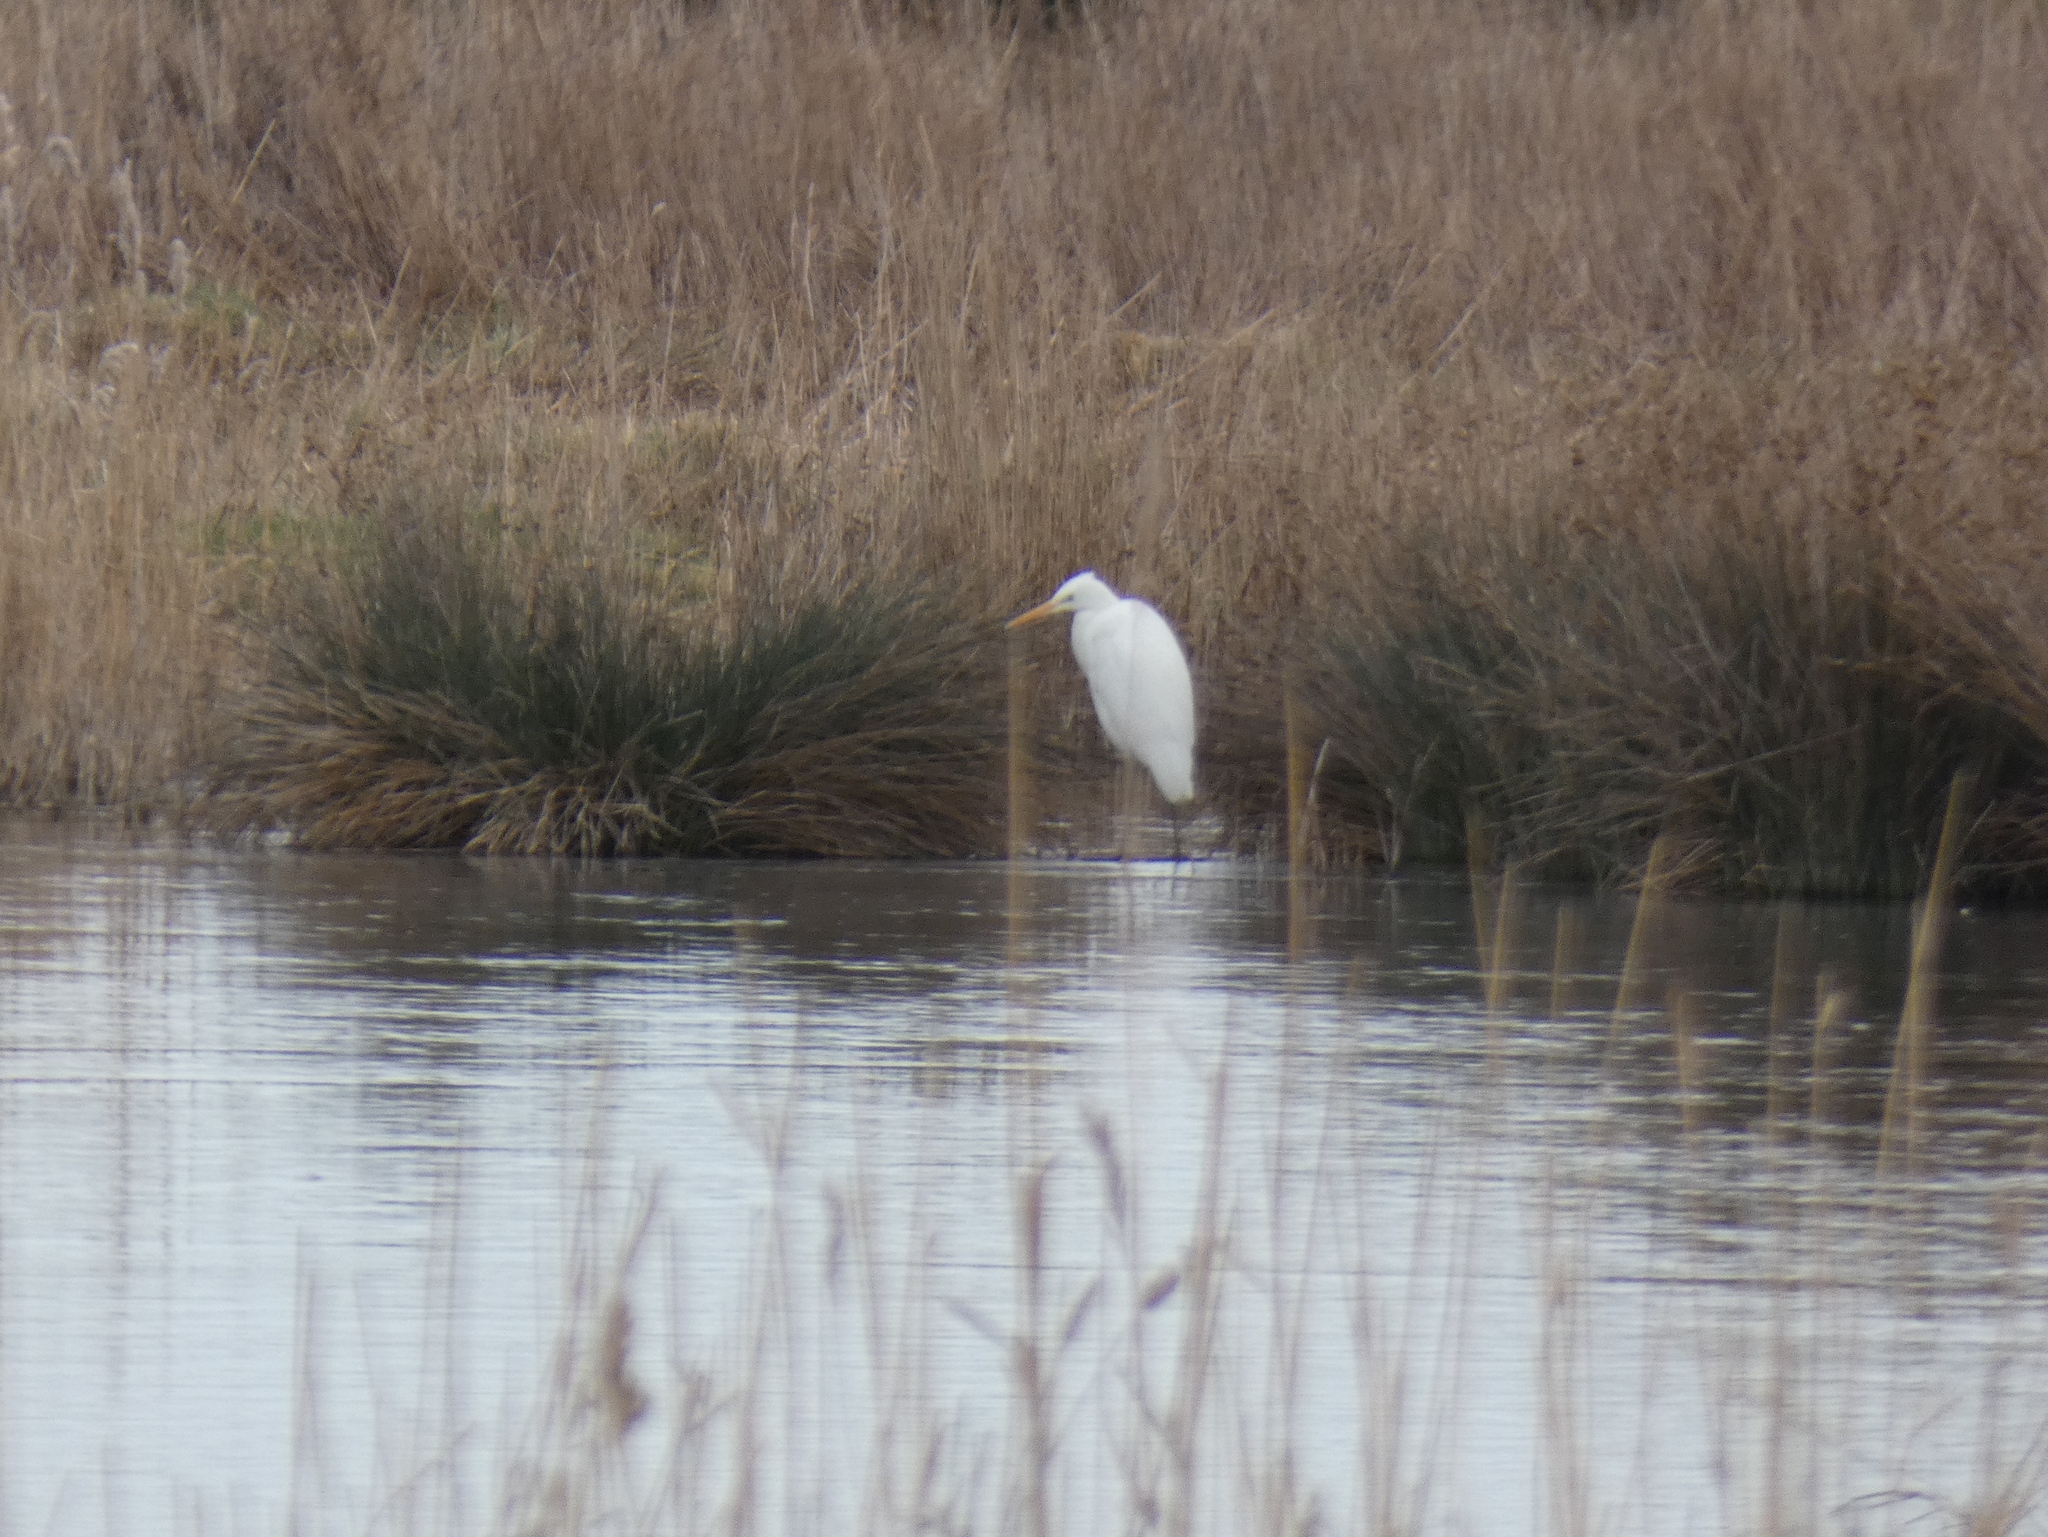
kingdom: Animalia
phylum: Chordata
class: Aves
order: Pelecaniformes
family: Ardeidae
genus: Ardea
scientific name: Ardea alba
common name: Great egret
